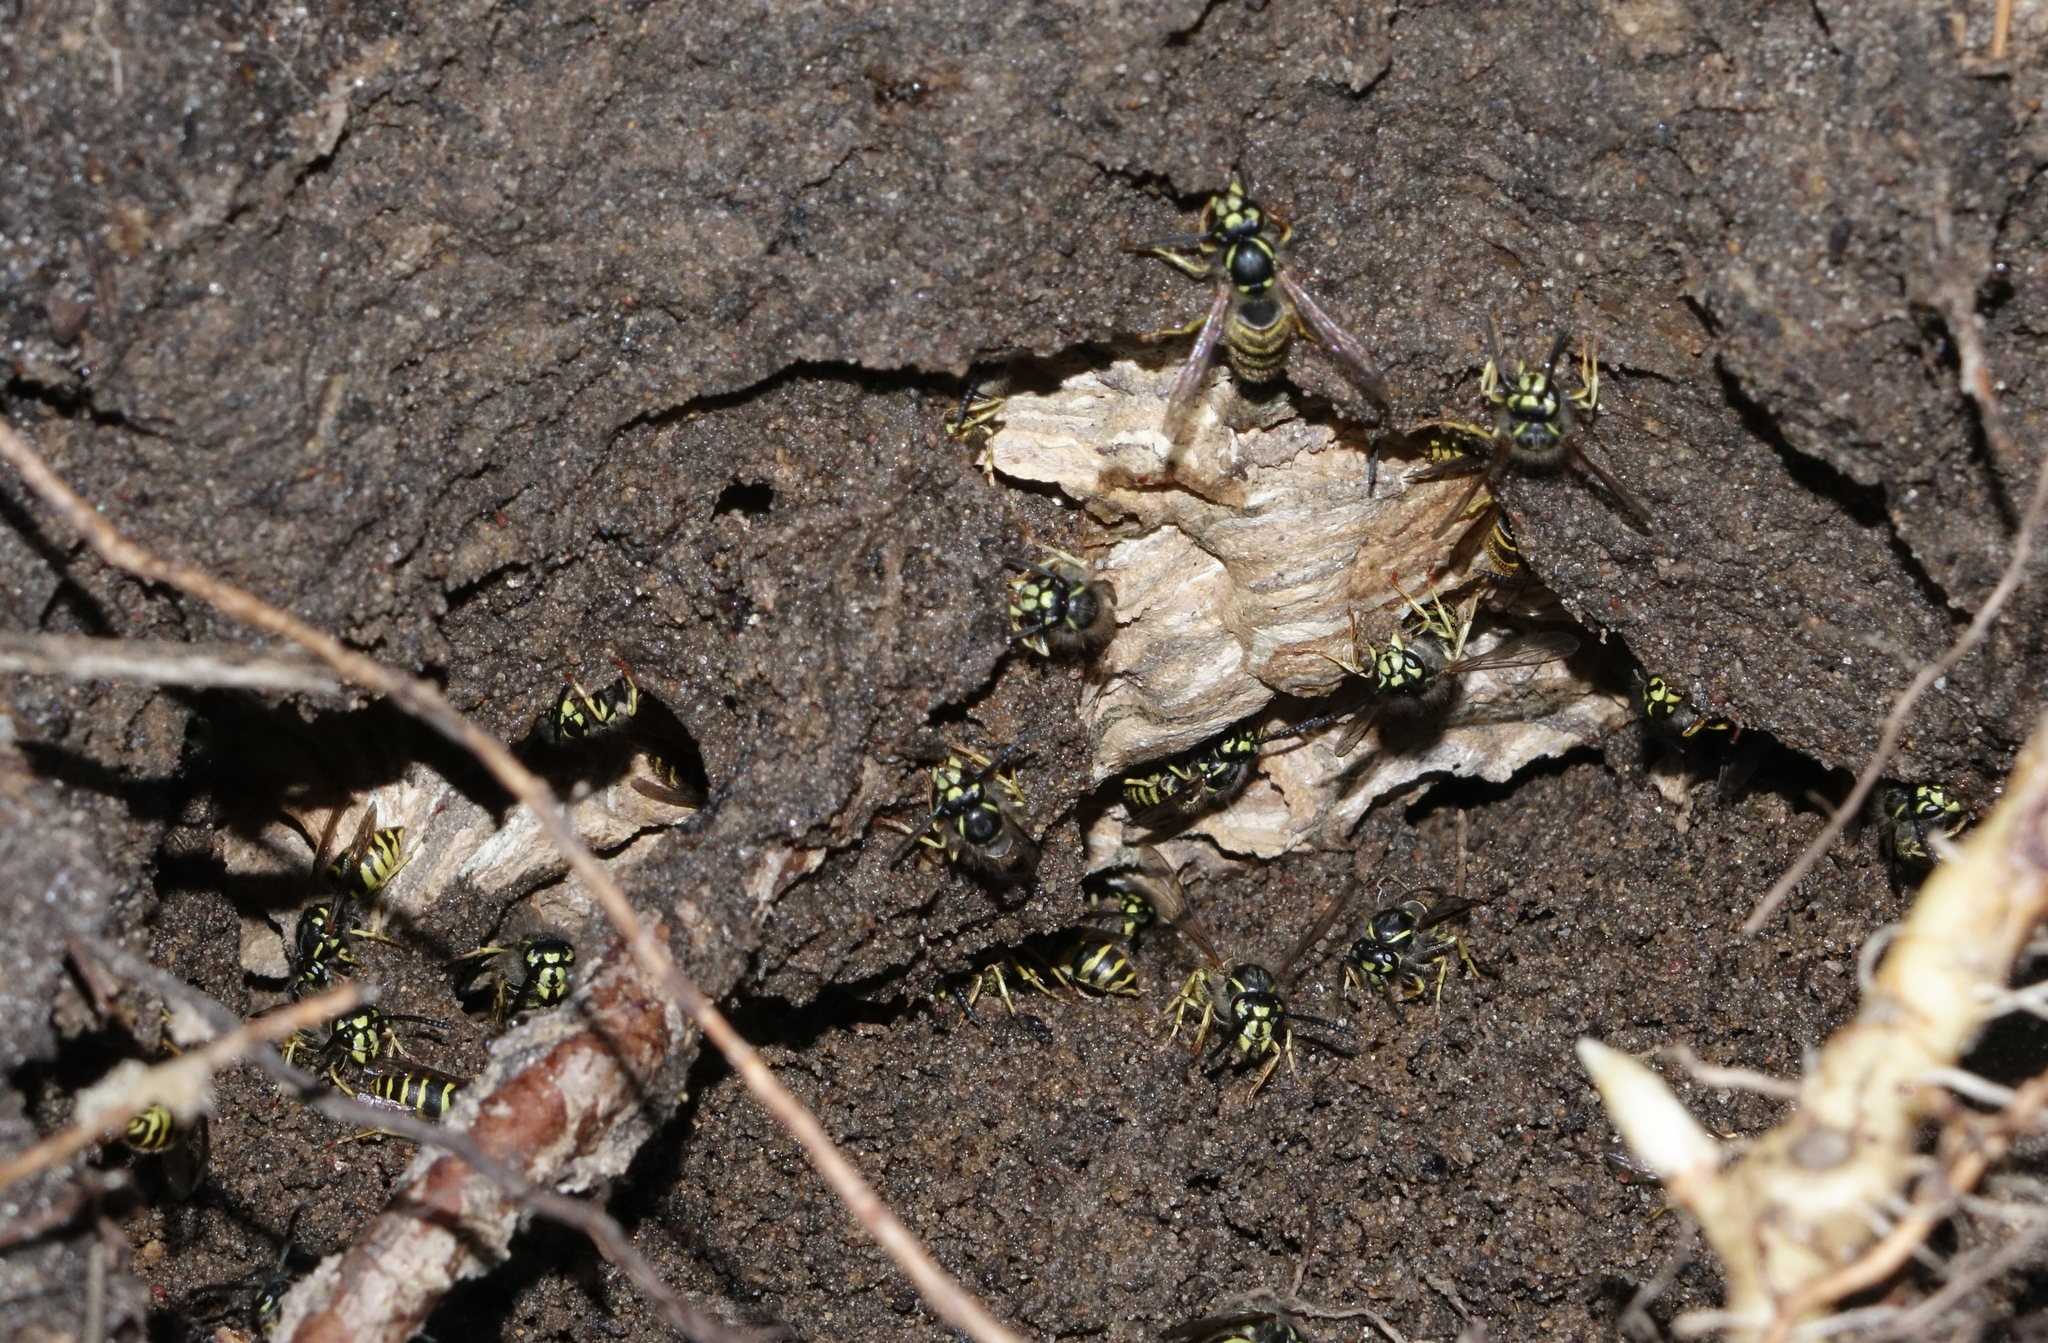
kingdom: Animalia
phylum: Arthropoda
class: Insecta
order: Hymenoptera
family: Vespidae
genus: Vespula
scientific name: Vespula vulgaris
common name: Common wasp
